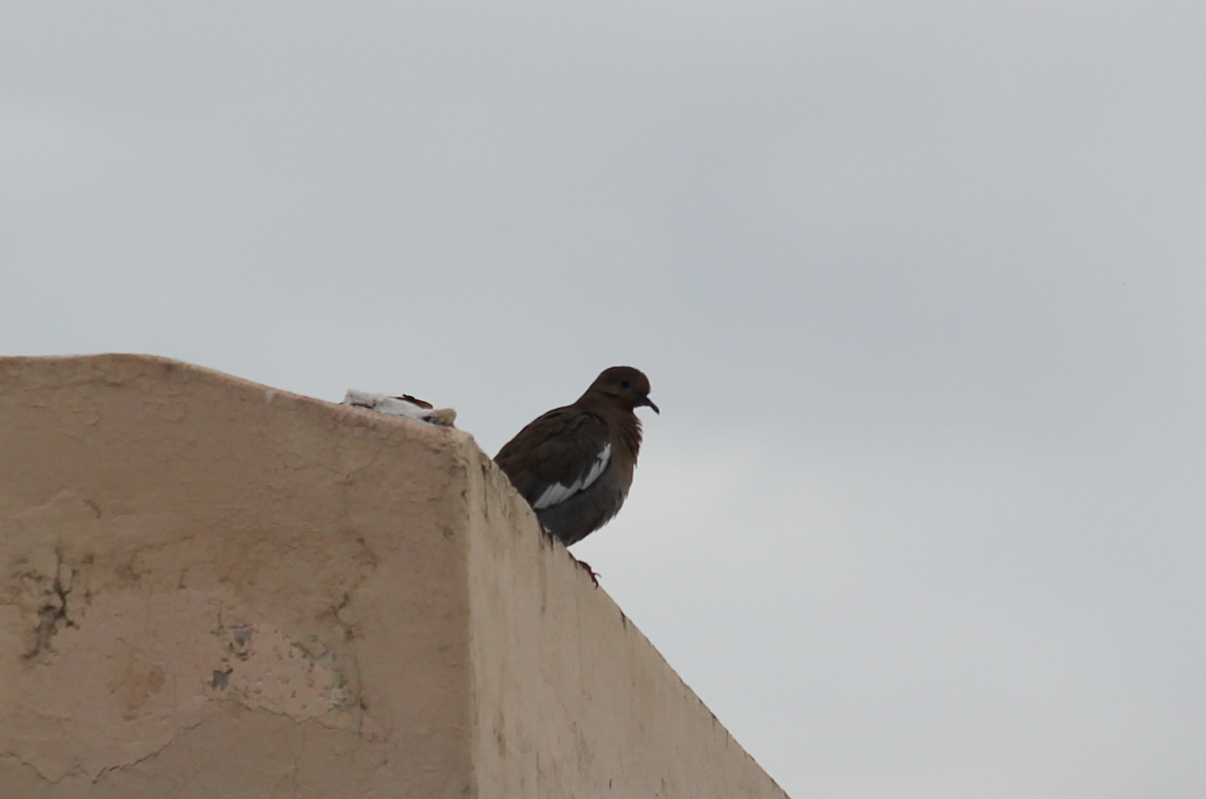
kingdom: Animalia
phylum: Chordata
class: Aves
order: Columbiformes
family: Columbidae
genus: Zenaida
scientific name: Zenaida asiatica
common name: White-winged dove
